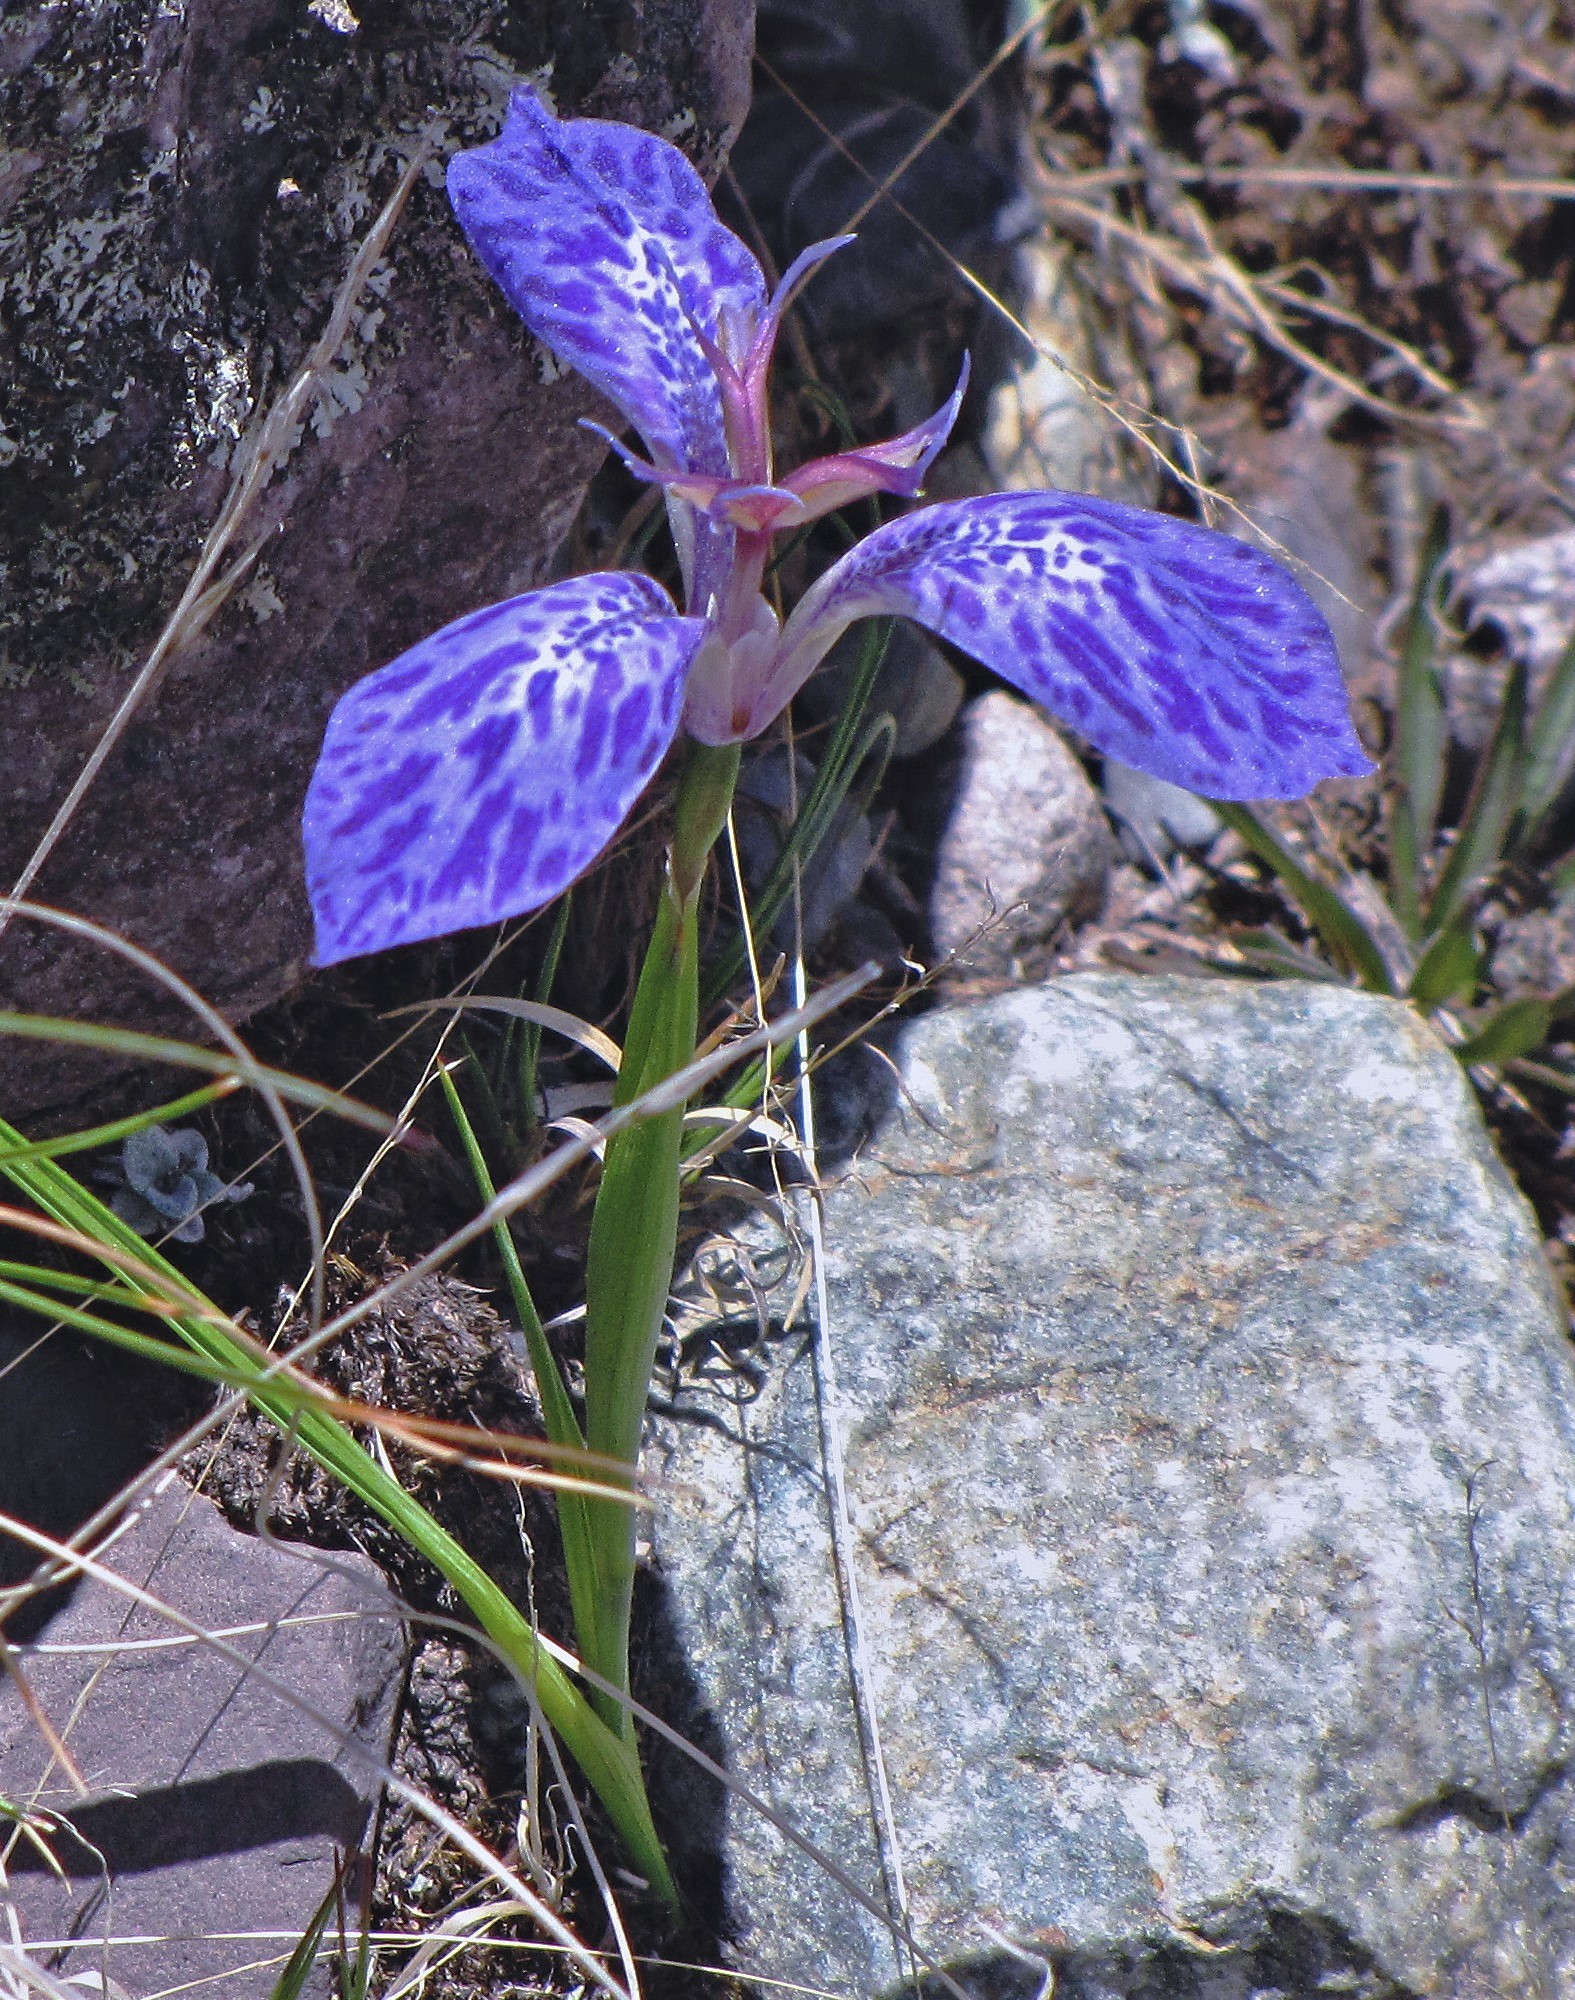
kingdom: Plantae
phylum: Tracheophyta
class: Liliopsida
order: Asparagales
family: Iridaceae
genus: Mastigostyla
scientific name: Mastigostyla spathacea
